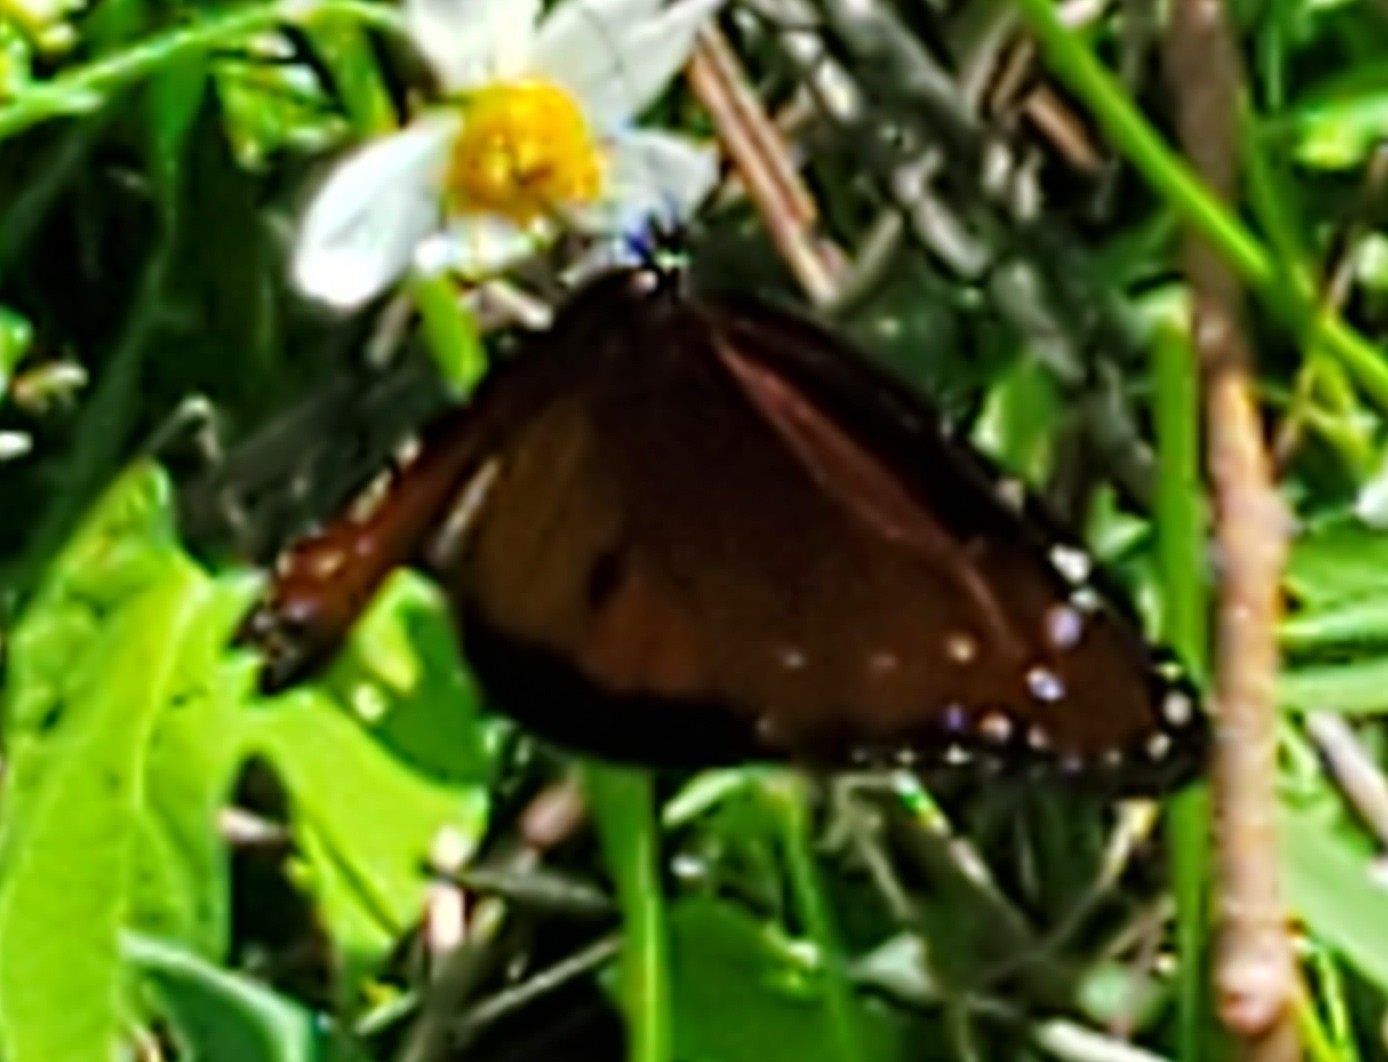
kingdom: Animalia
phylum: Arthropoda
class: Insecta
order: Lepidoptera
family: Nymphalidae
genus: Danaus
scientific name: Danaus gilippus
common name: Queen
